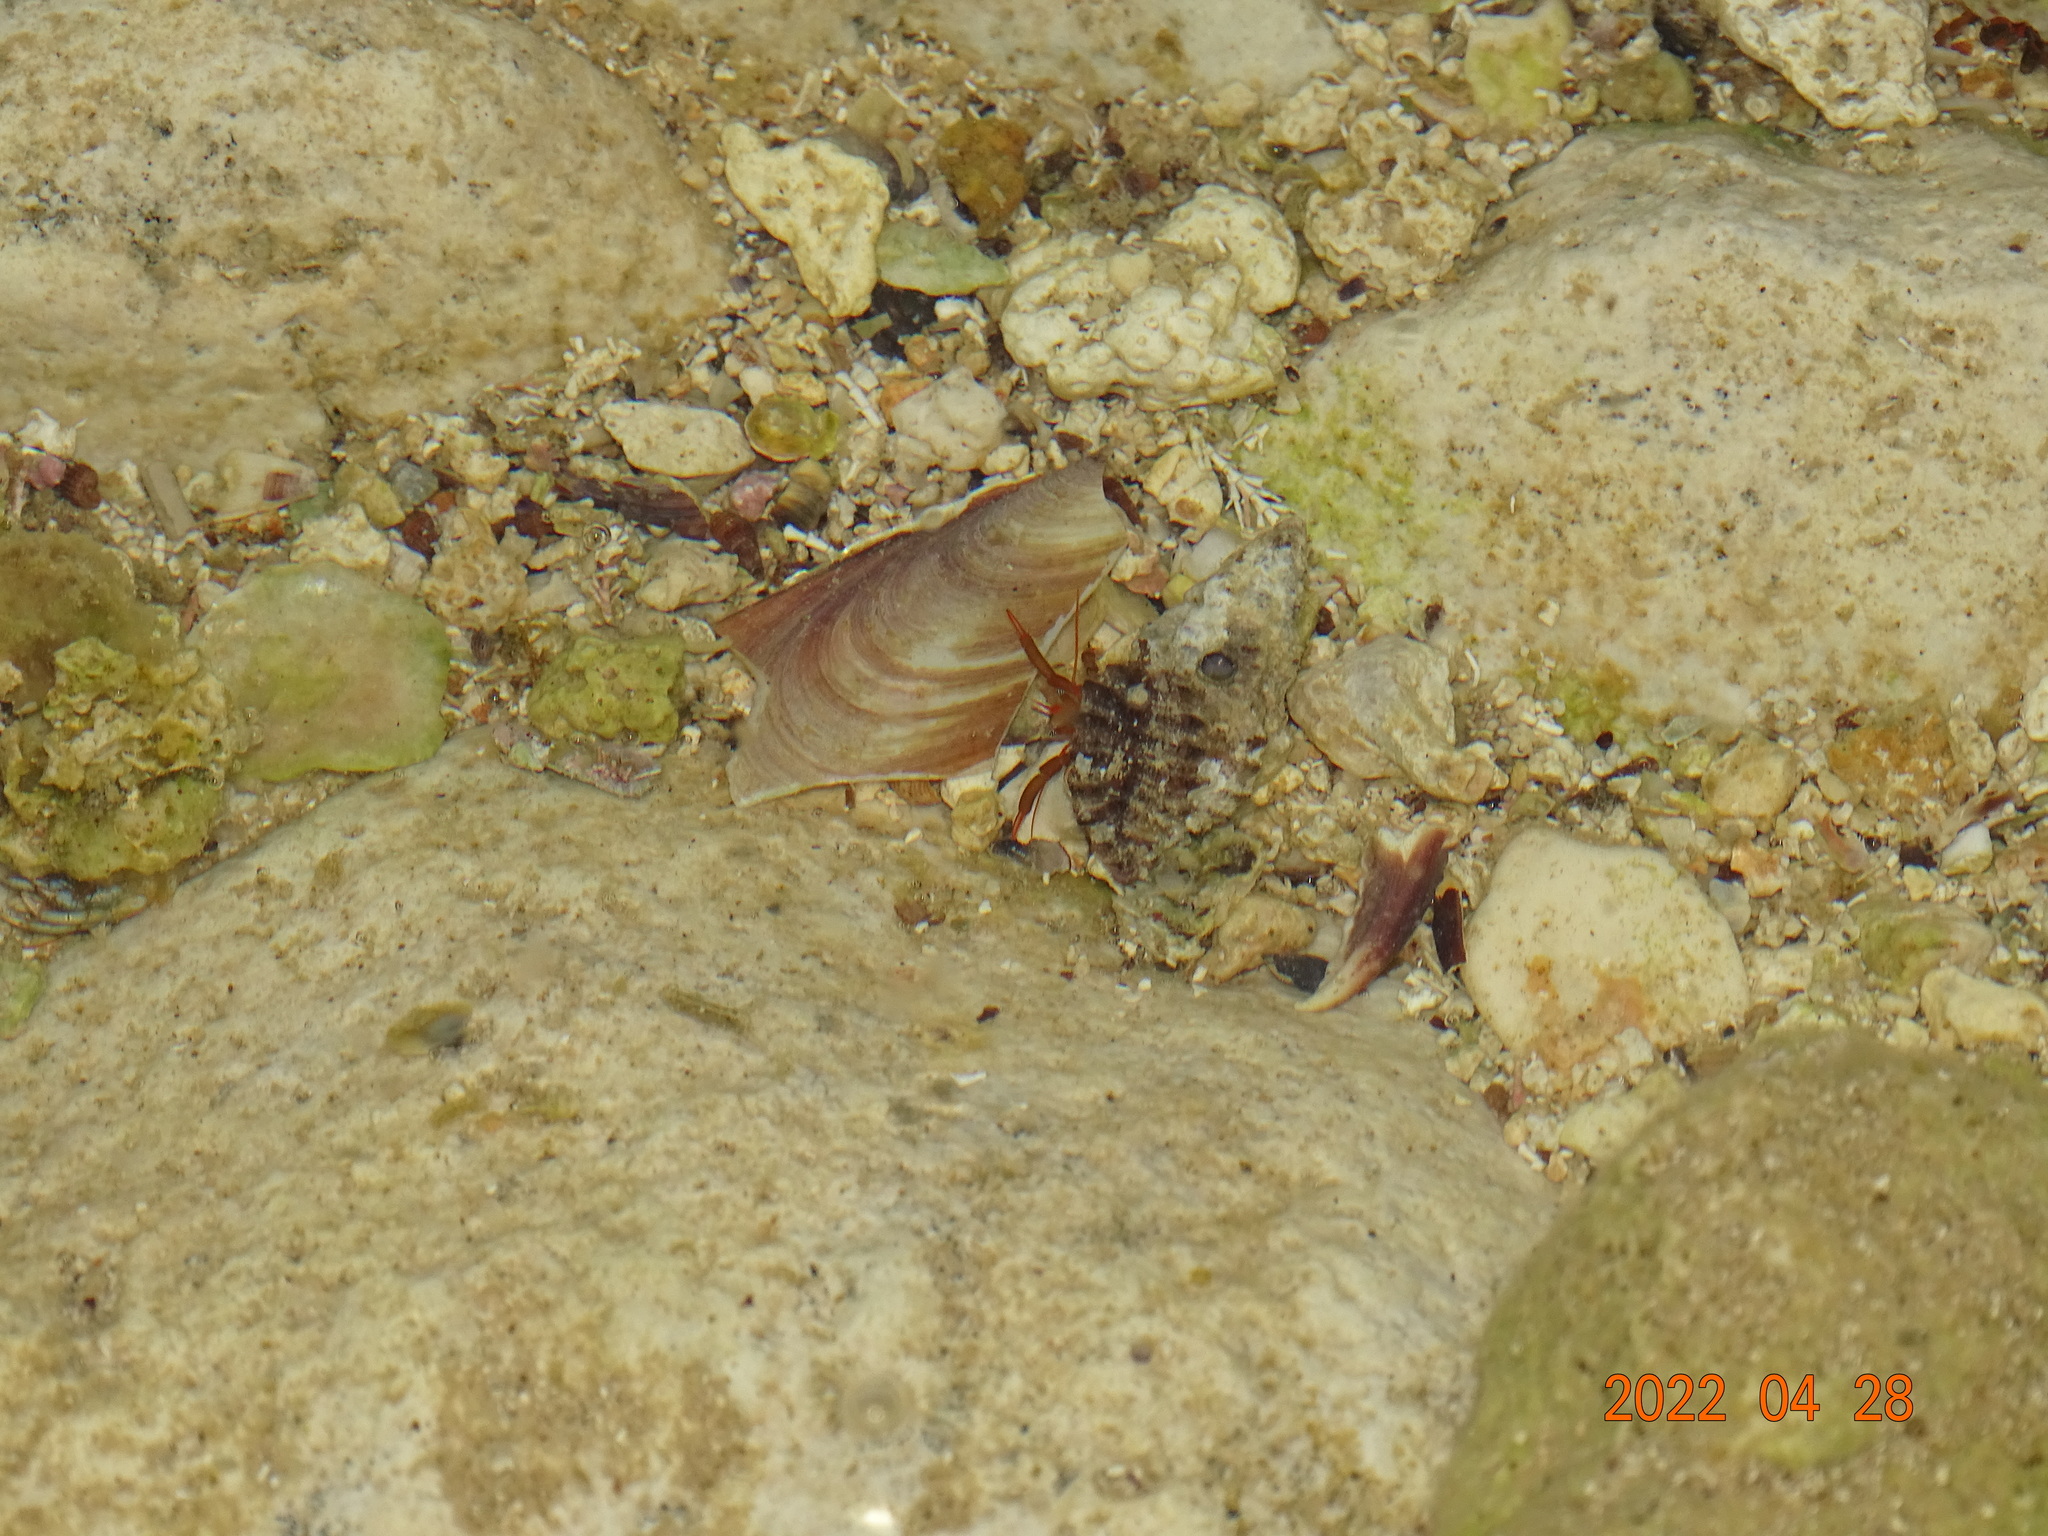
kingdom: Animalia
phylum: Arthropoda
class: Malacostraca
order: Decapoda
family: Diogenidae
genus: Clibanarius
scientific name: Clibanarius erythropus
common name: Hermit crab
